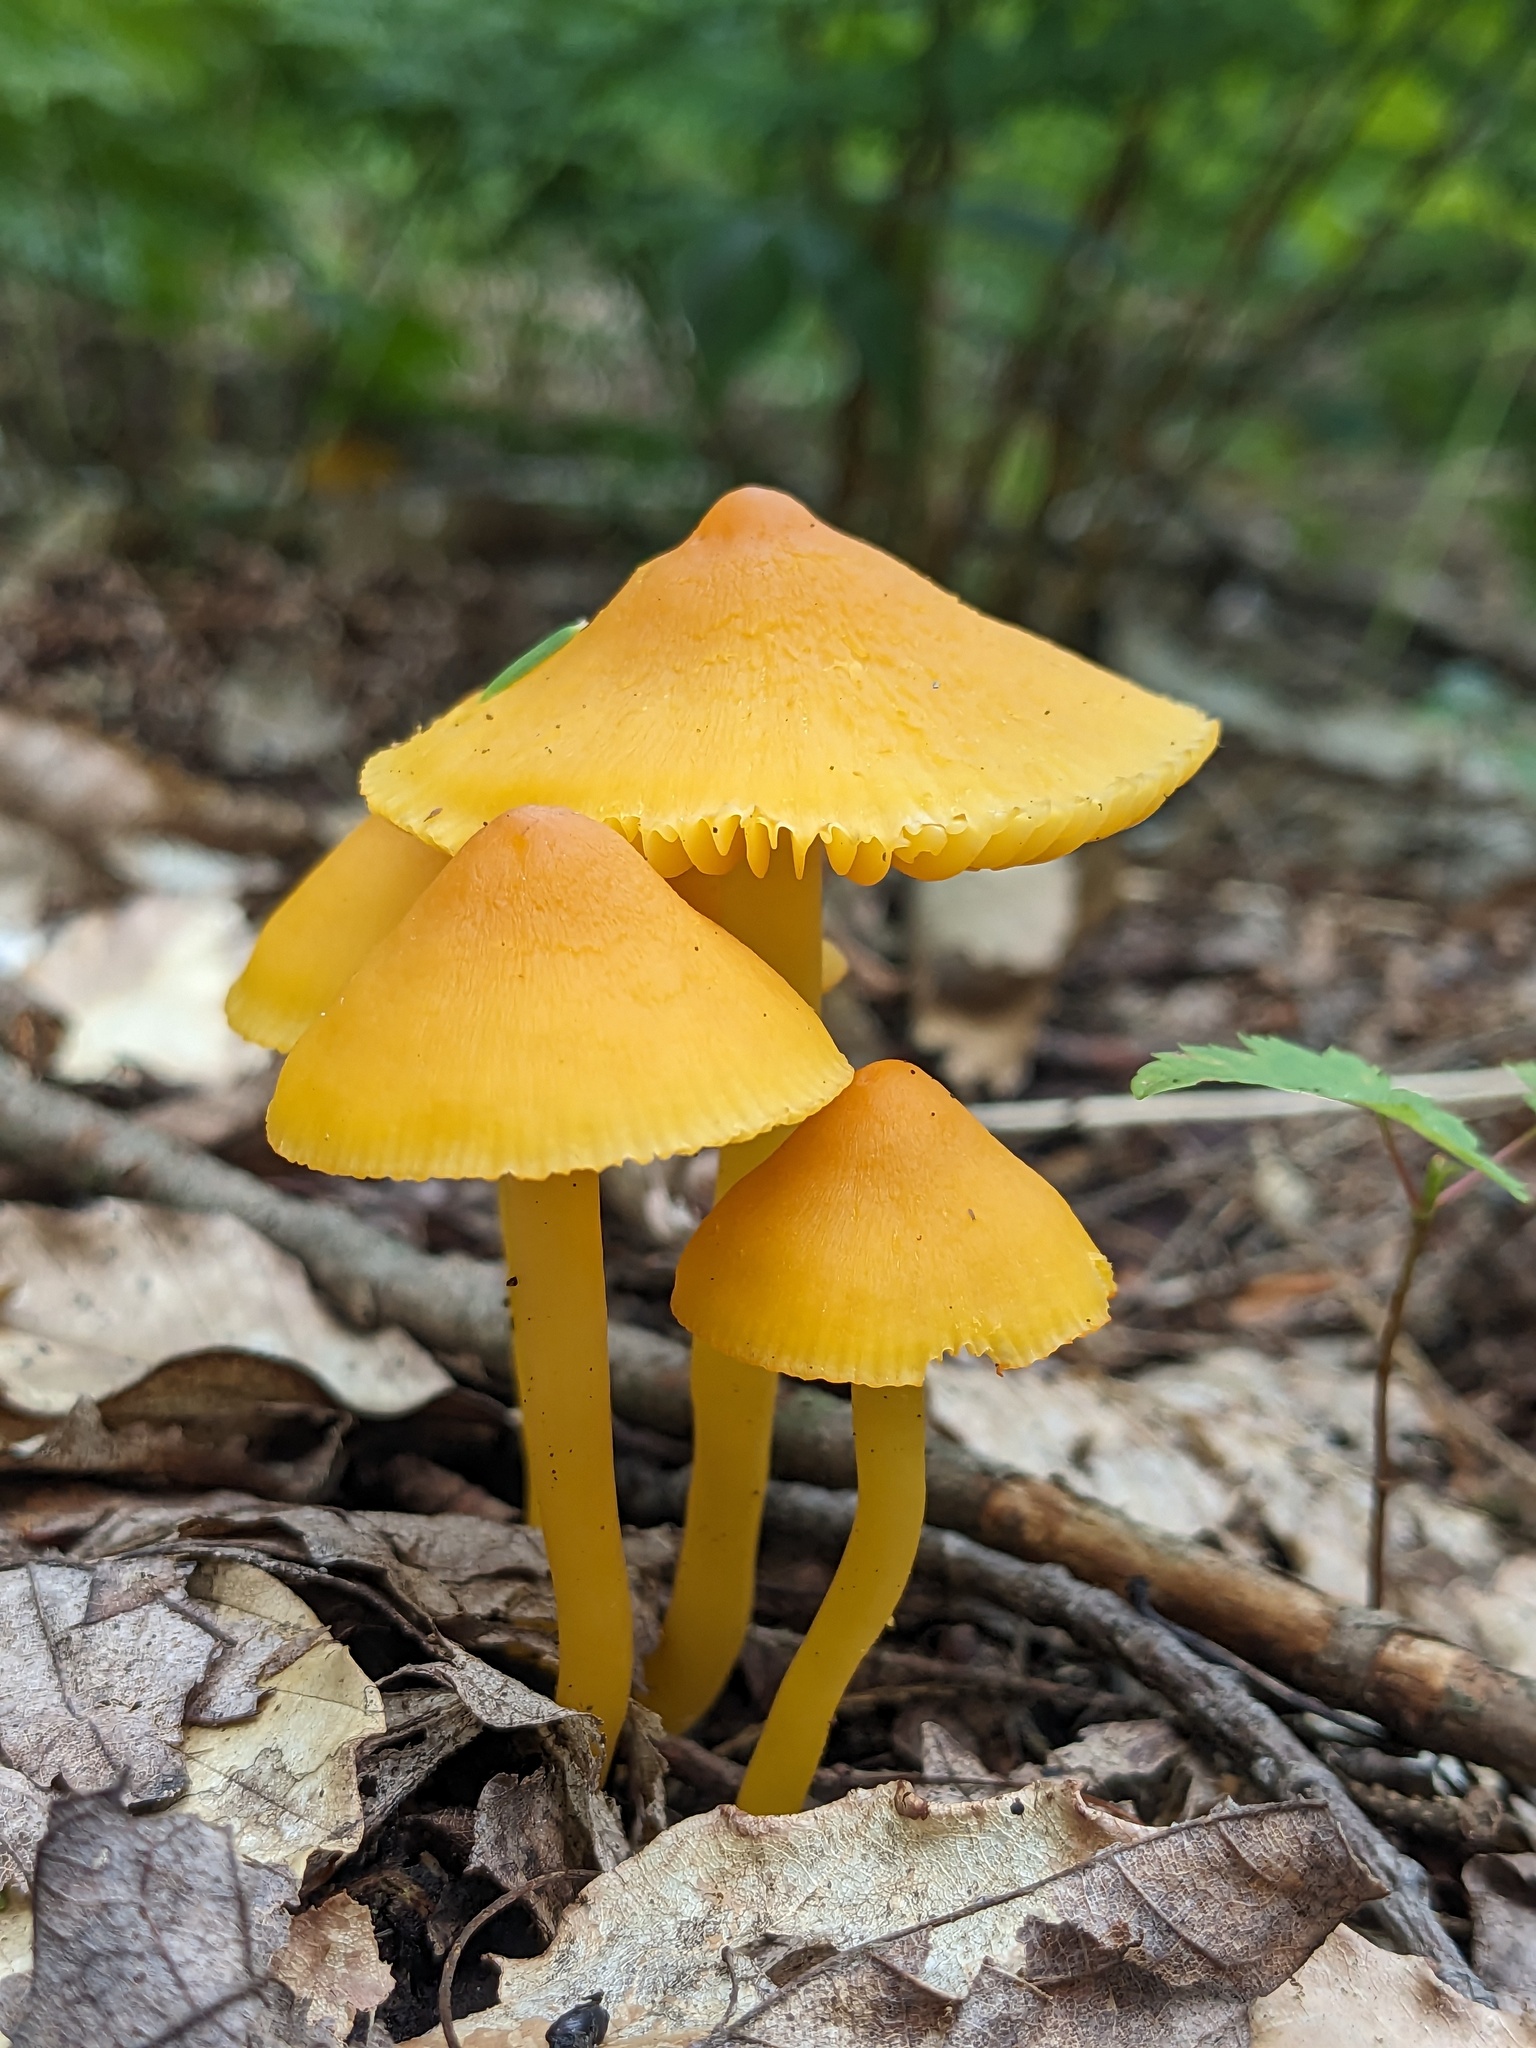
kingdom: Fungi
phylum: Basidiomycota
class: Agaricomycetes
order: Agaricales
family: Hygrophoraceae
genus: Humidicutis
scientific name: Humidicutis marginata
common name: Orange gilled waxcap
